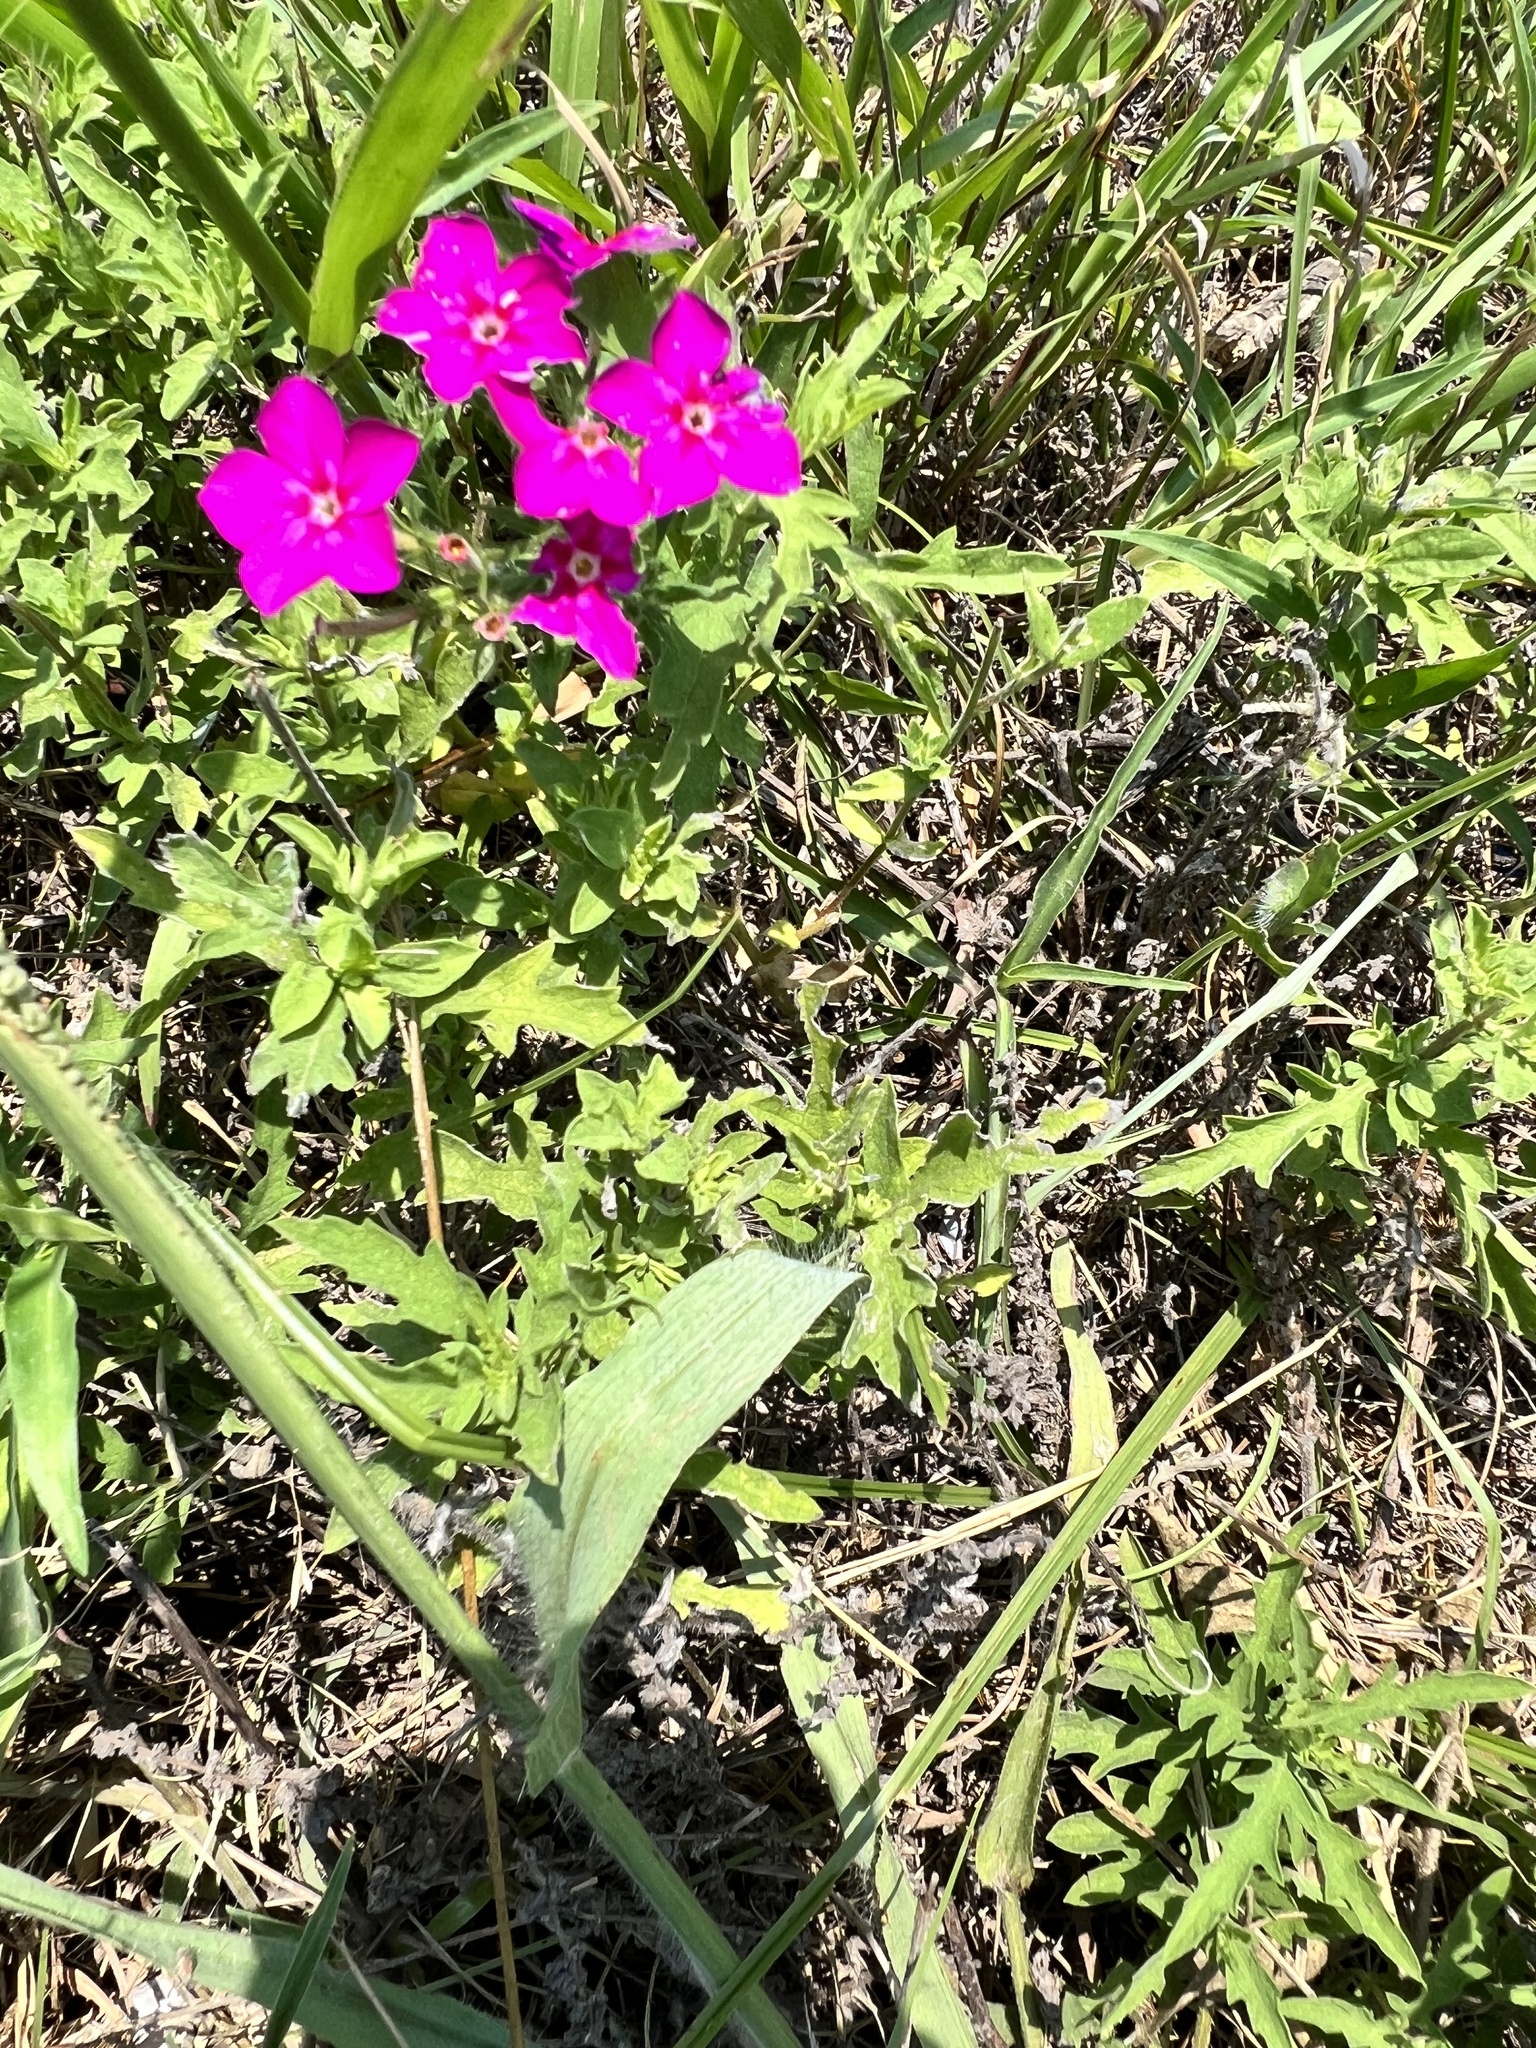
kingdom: Plantae
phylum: Tracheophyta
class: Magnoliopsida
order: Ericales
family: Polemoniaceae
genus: Phlox
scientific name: Phlox drummondii
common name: Drummond's phlox
